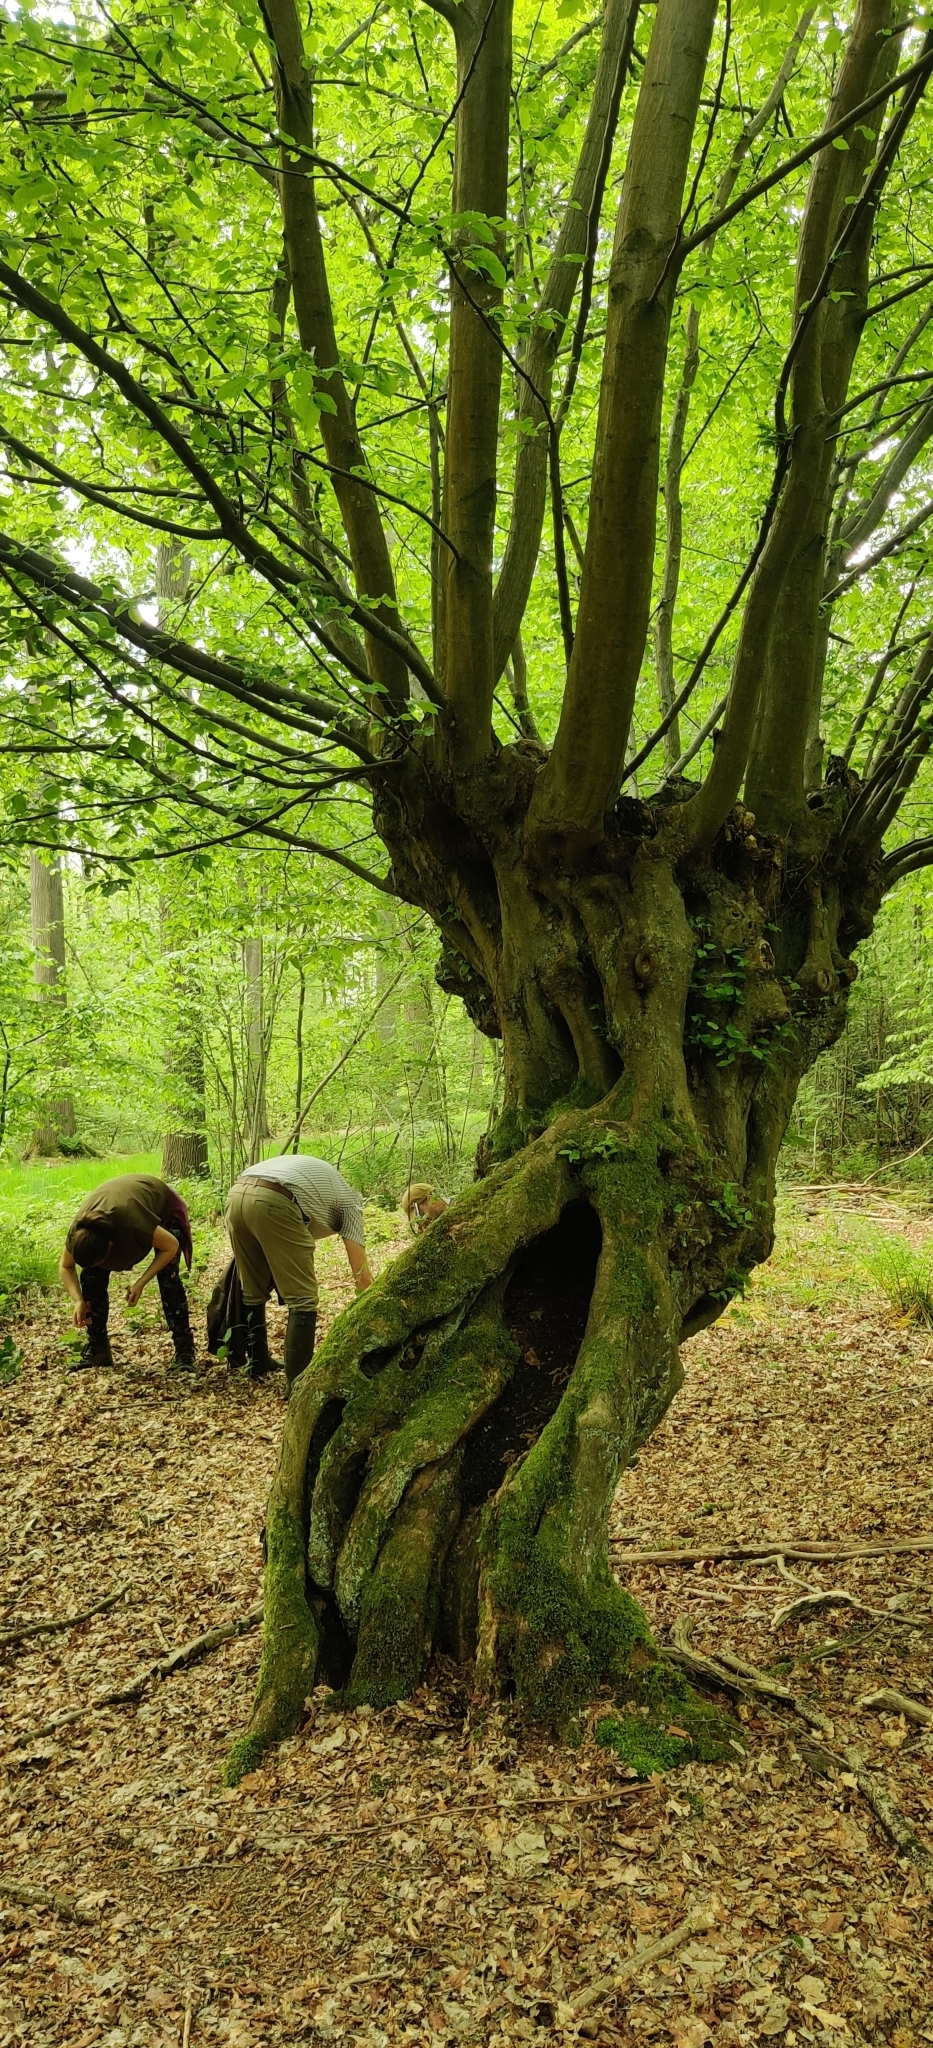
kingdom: Plantae
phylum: Tracheophyta
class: Magnoliopsida
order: Fagales
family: Betulaceae
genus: Carpinus
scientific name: Carpinus betulus
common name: Hornbeam
